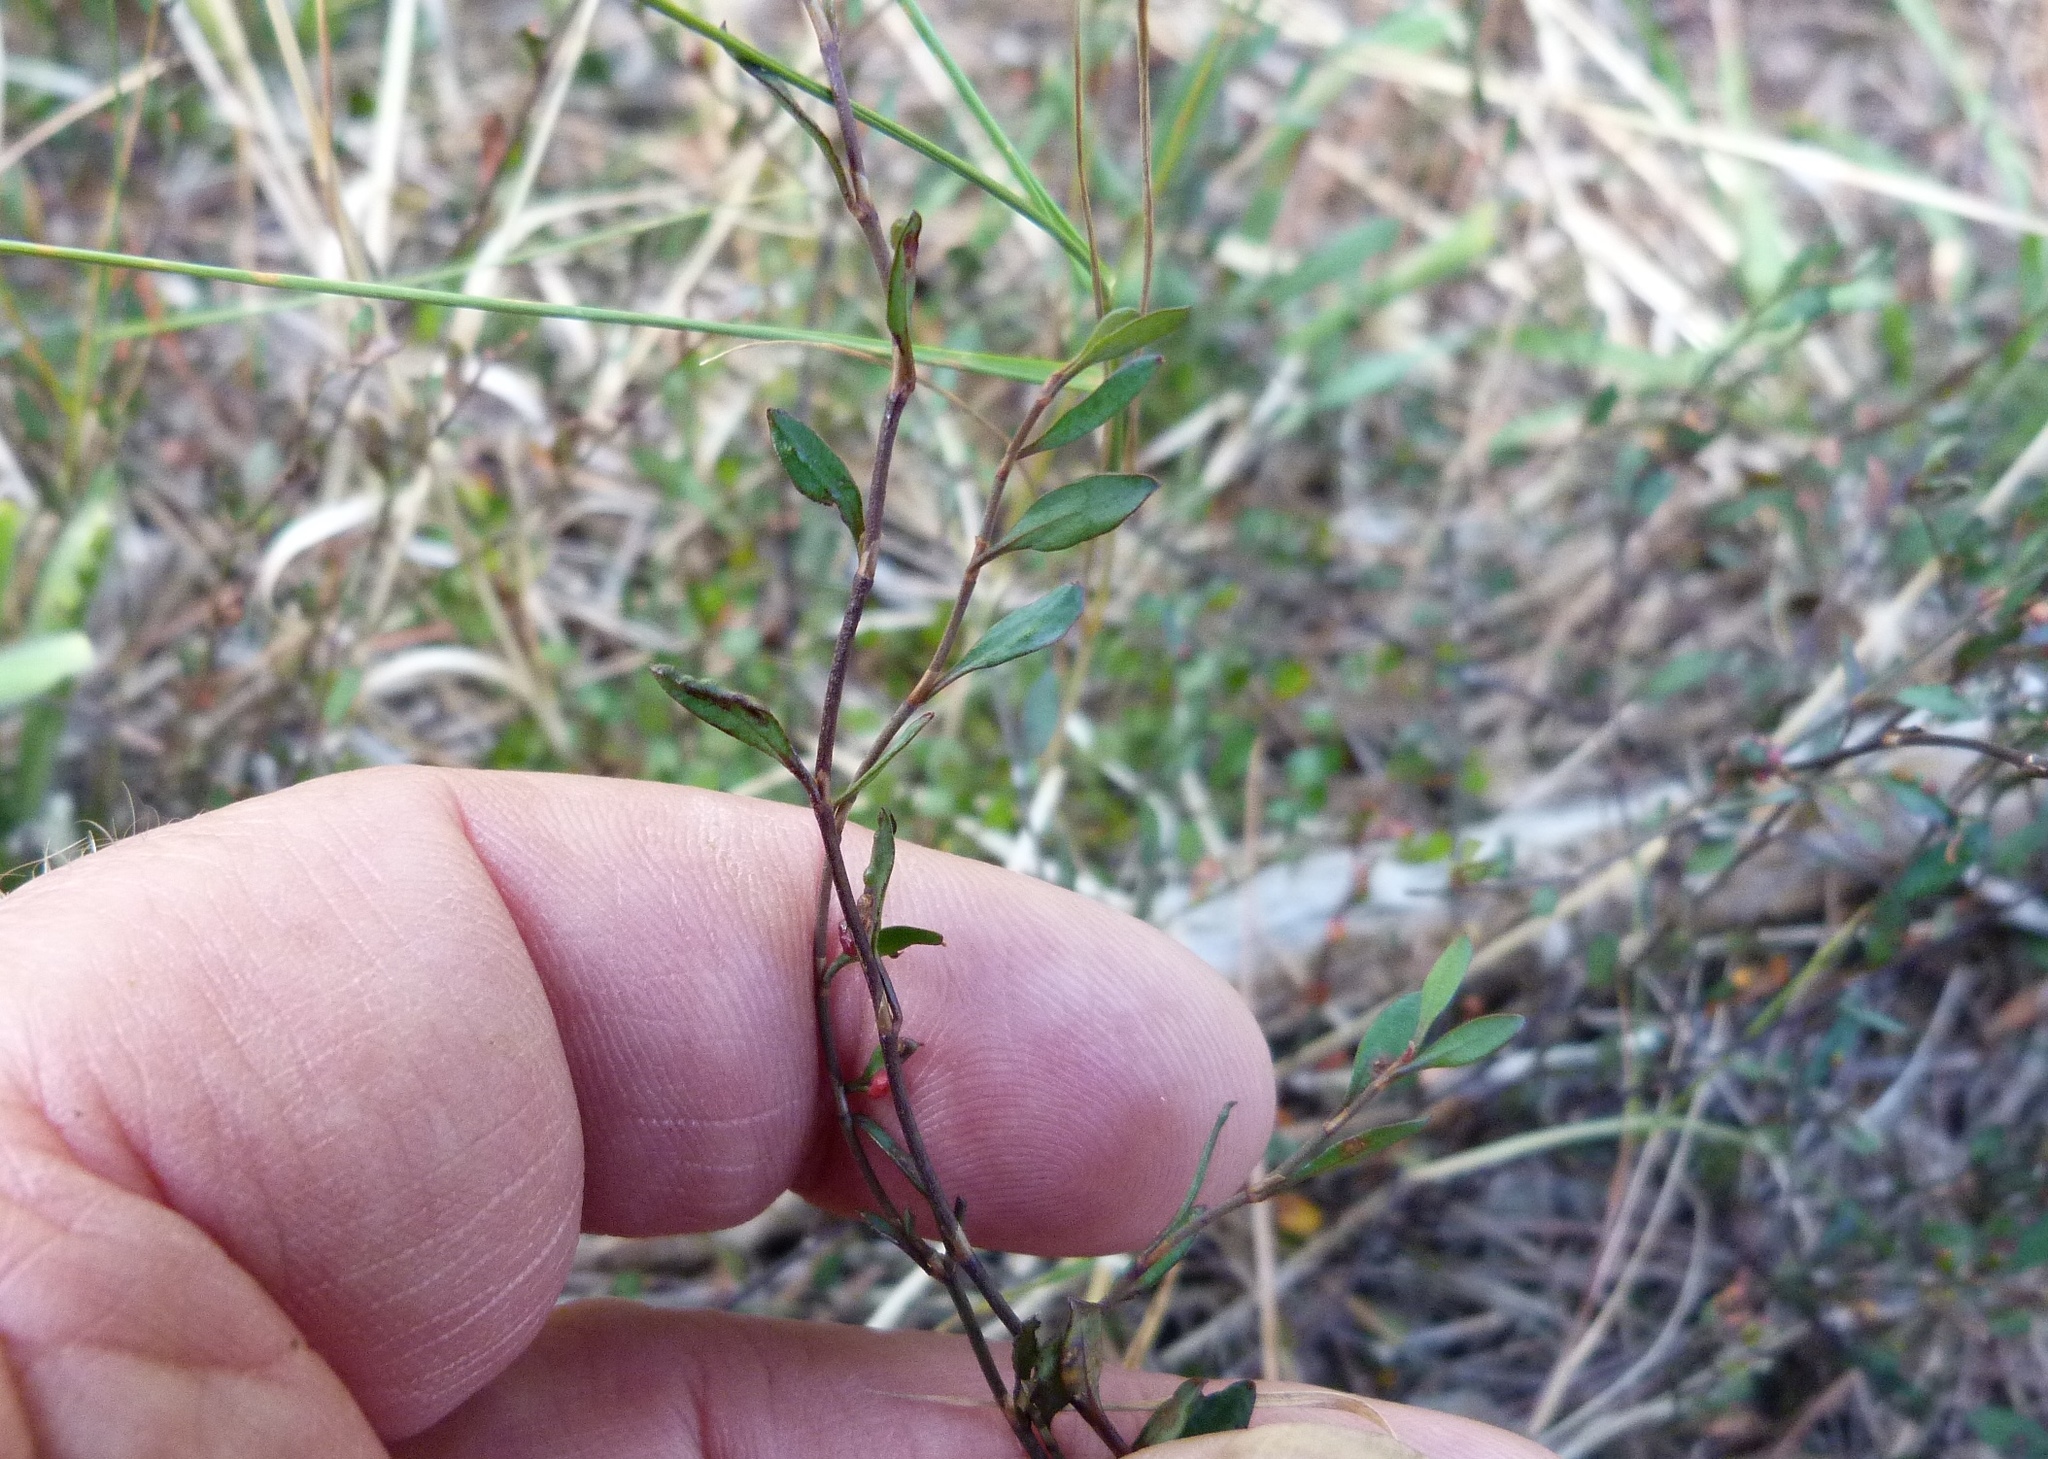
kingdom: Plantae
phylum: Tracheophyta
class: Magnoliopsida
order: Caryophyllales
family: Polygonaceae
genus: Muehlenbeckia
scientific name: Muehlenbeckia
